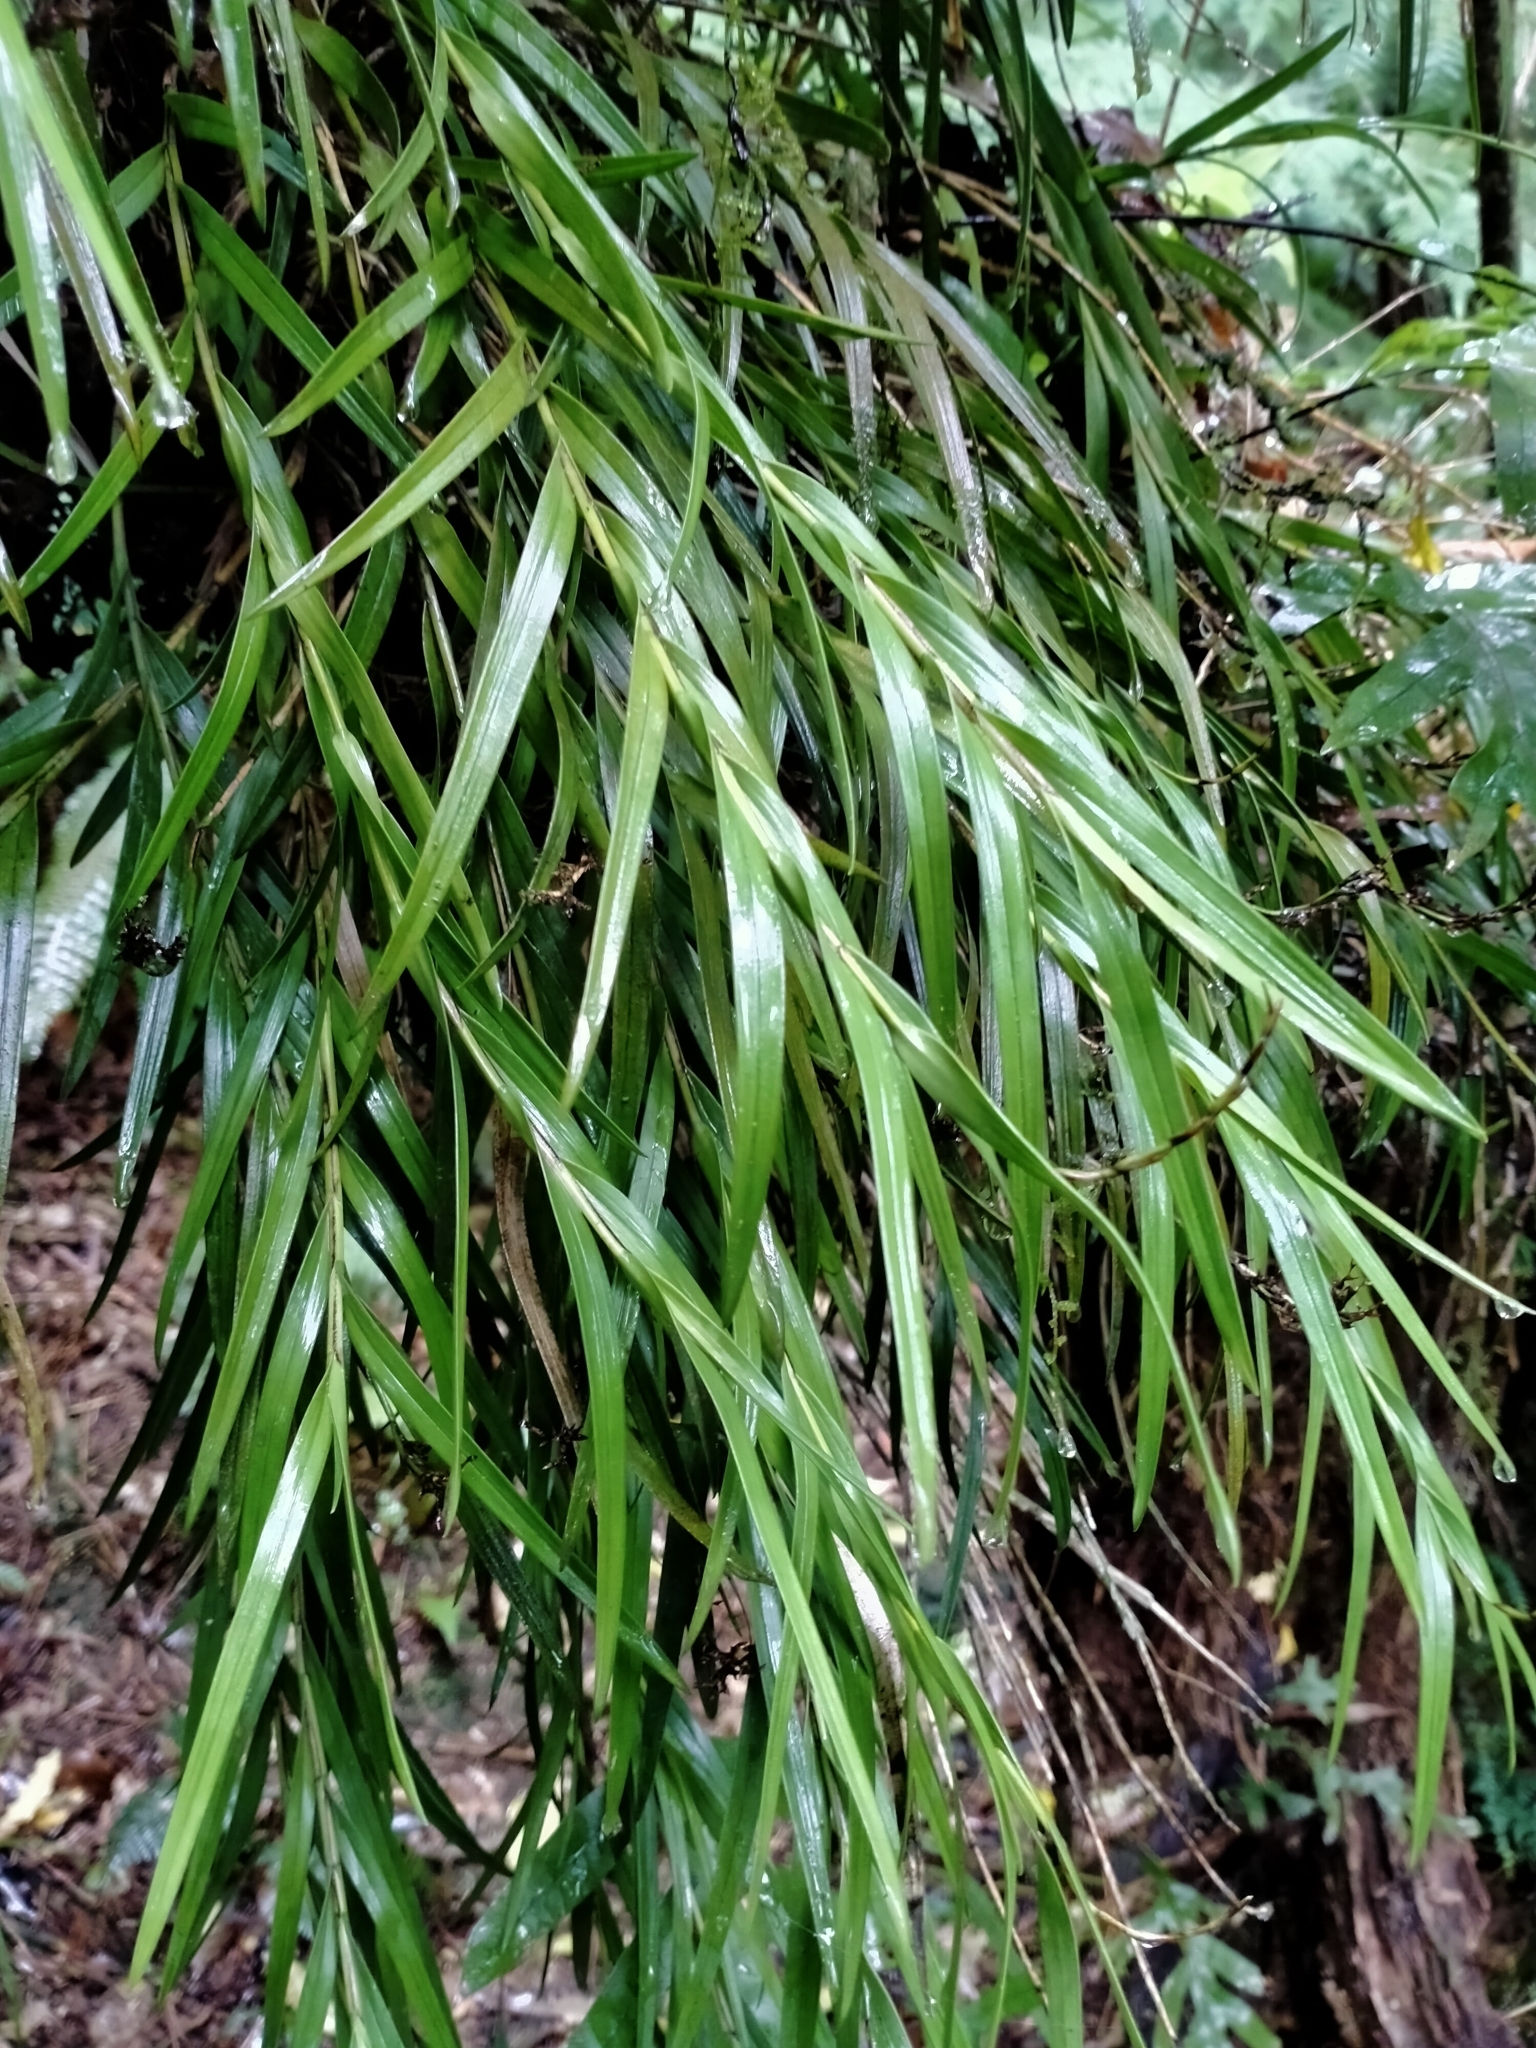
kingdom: Plantae
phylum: Tracheophyta
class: Liliopsida
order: Asparagales
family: Orchidaceae
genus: Earina
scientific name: Earina autumnalis
